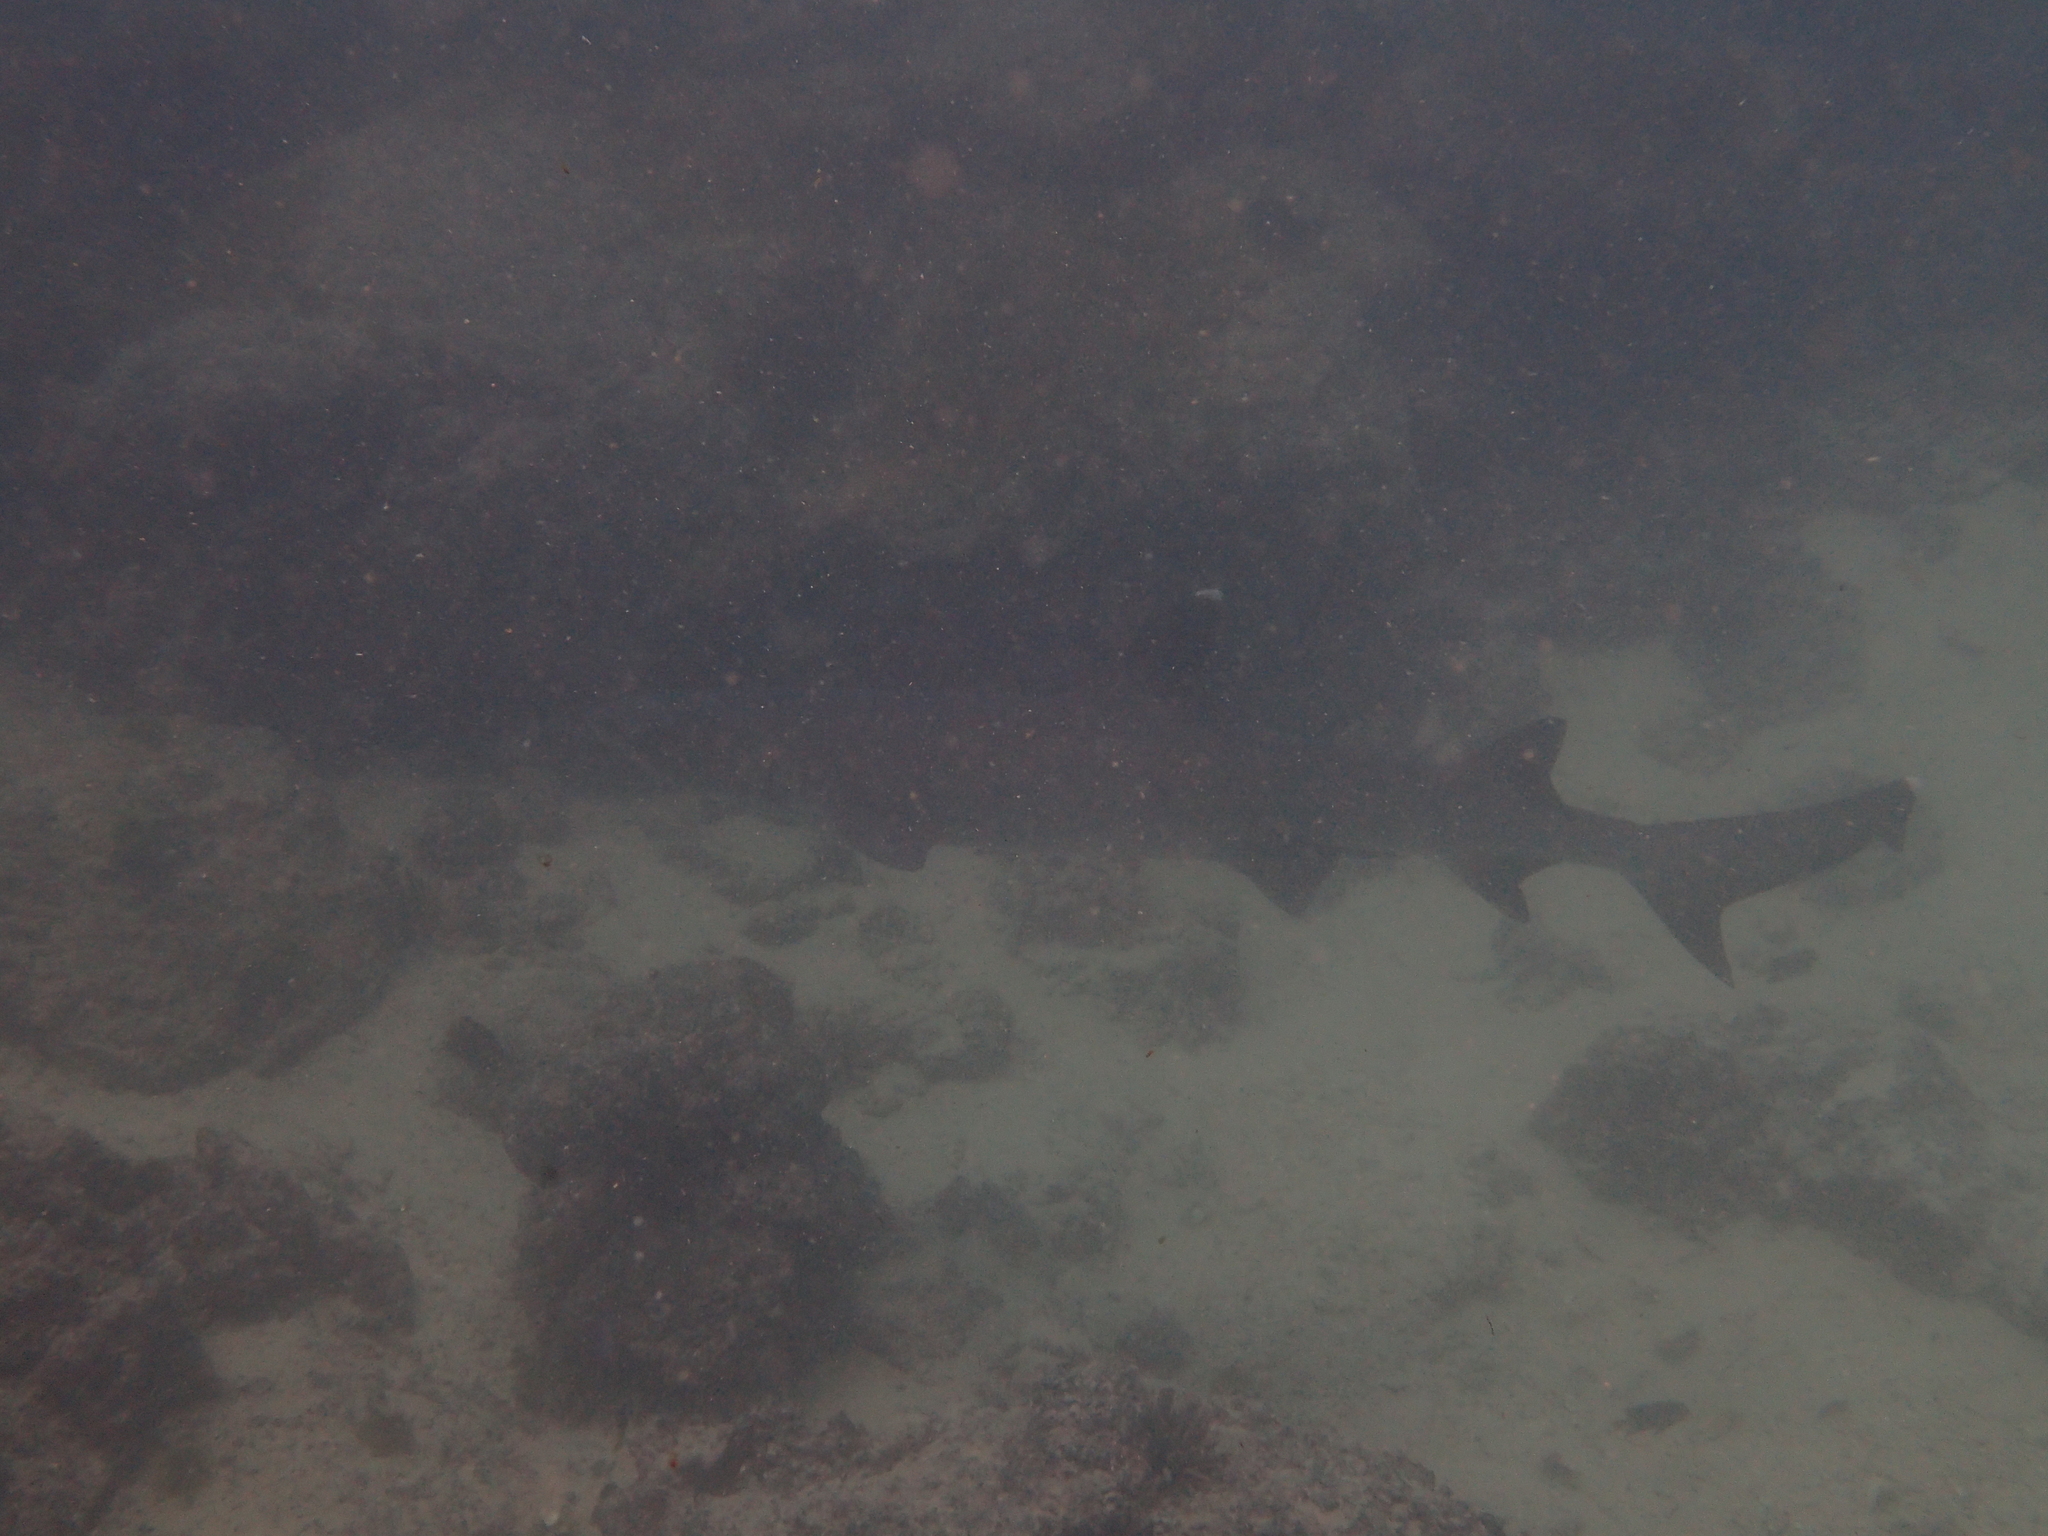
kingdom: Animalia
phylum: Chordata
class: Elasmobranchii
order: Carcharhiniformes
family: Carcharhinidae
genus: Triaenodon
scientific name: Triaenodon obesus
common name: Whitetip reef shark
